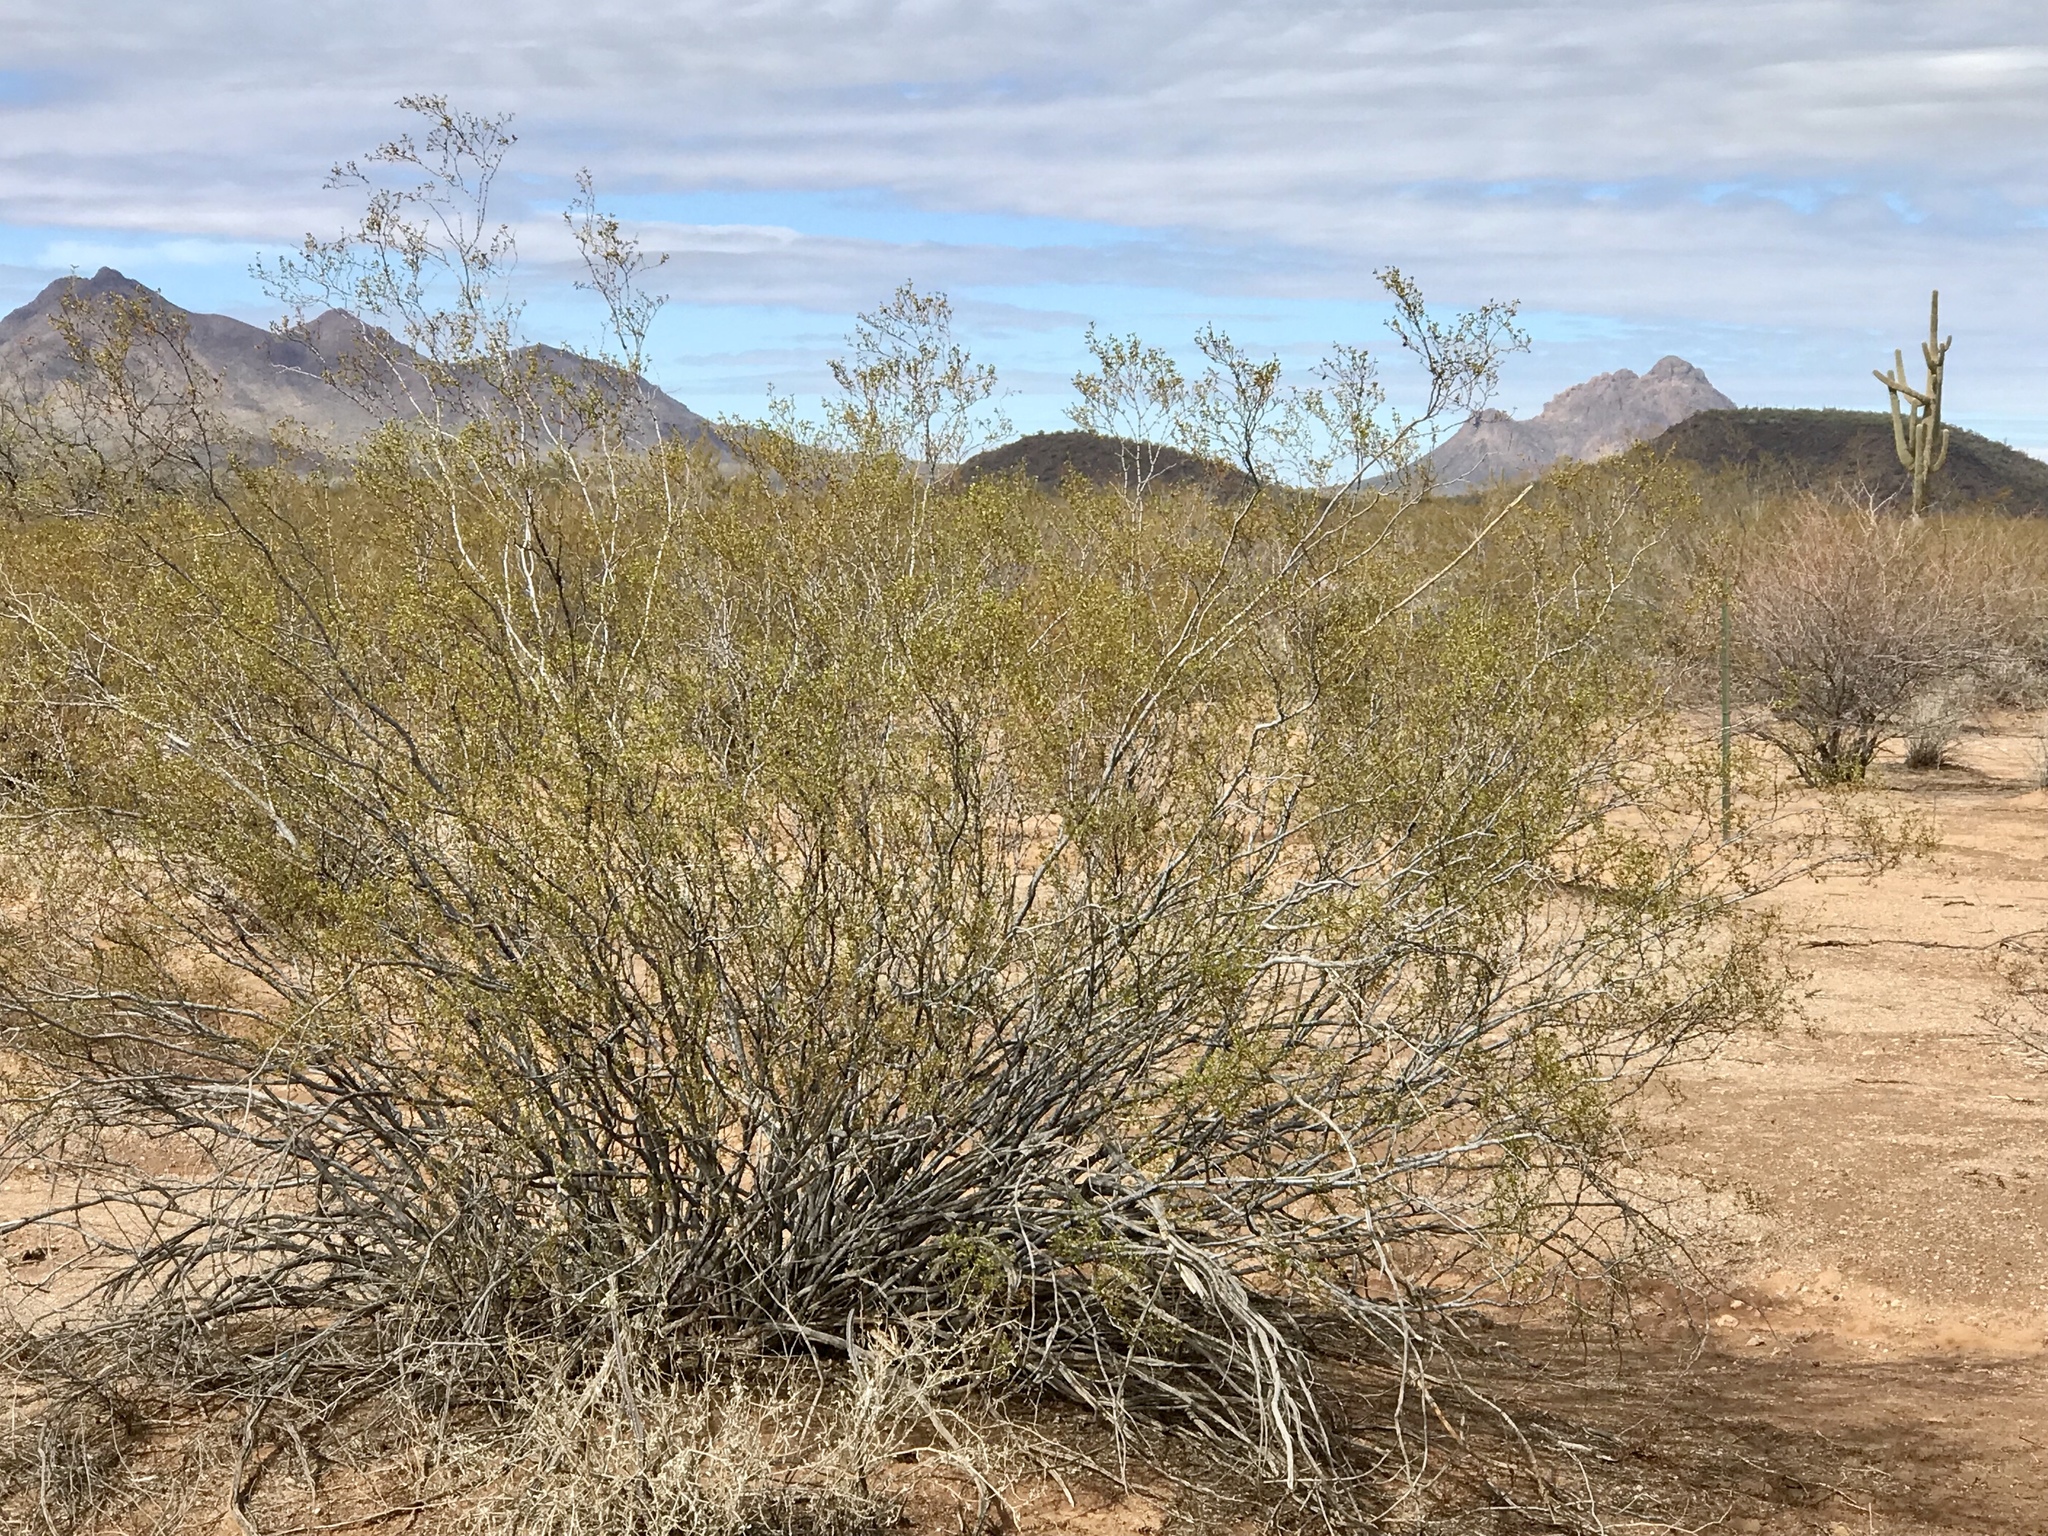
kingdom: Plantae
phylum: Tracheophyta
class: Magnoliopsida
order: Zygophyllales
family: Zygophyllaceae
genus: Larrea
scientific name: Larrea tridentata
